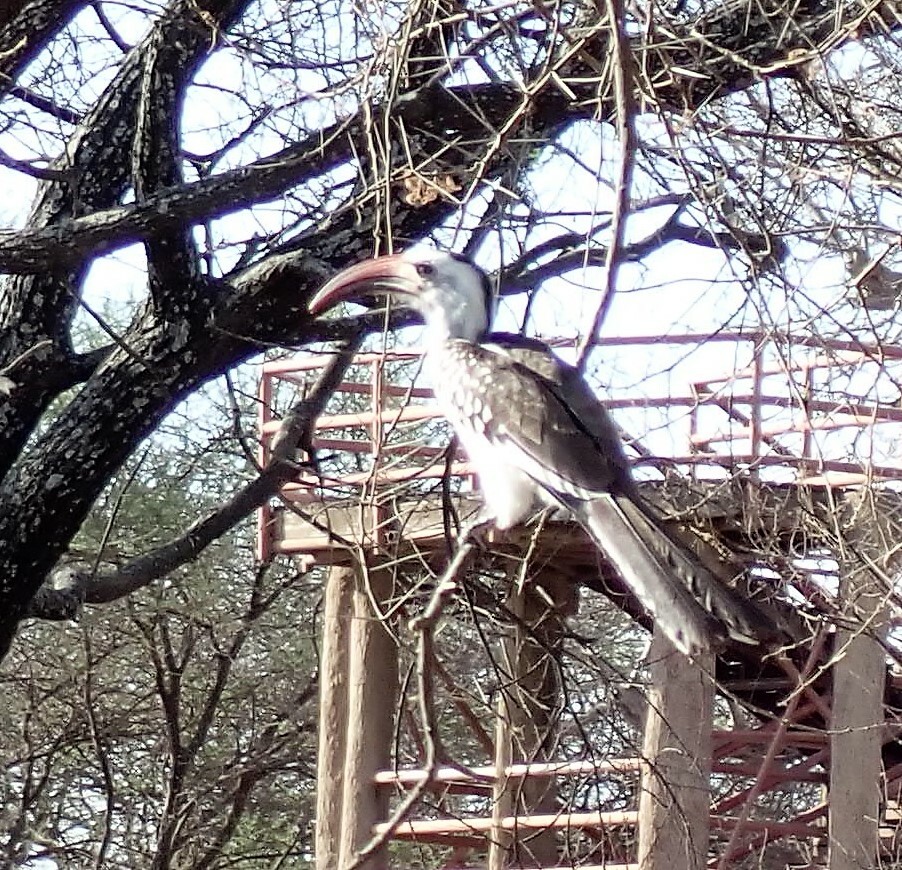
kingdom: Animalia
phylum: Chordata
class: Aves
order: Bucerotiformes
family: Bucerotidae
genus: Tockus
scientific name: Tockus erythrorhynchus
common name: Northern red-billed hornbill
